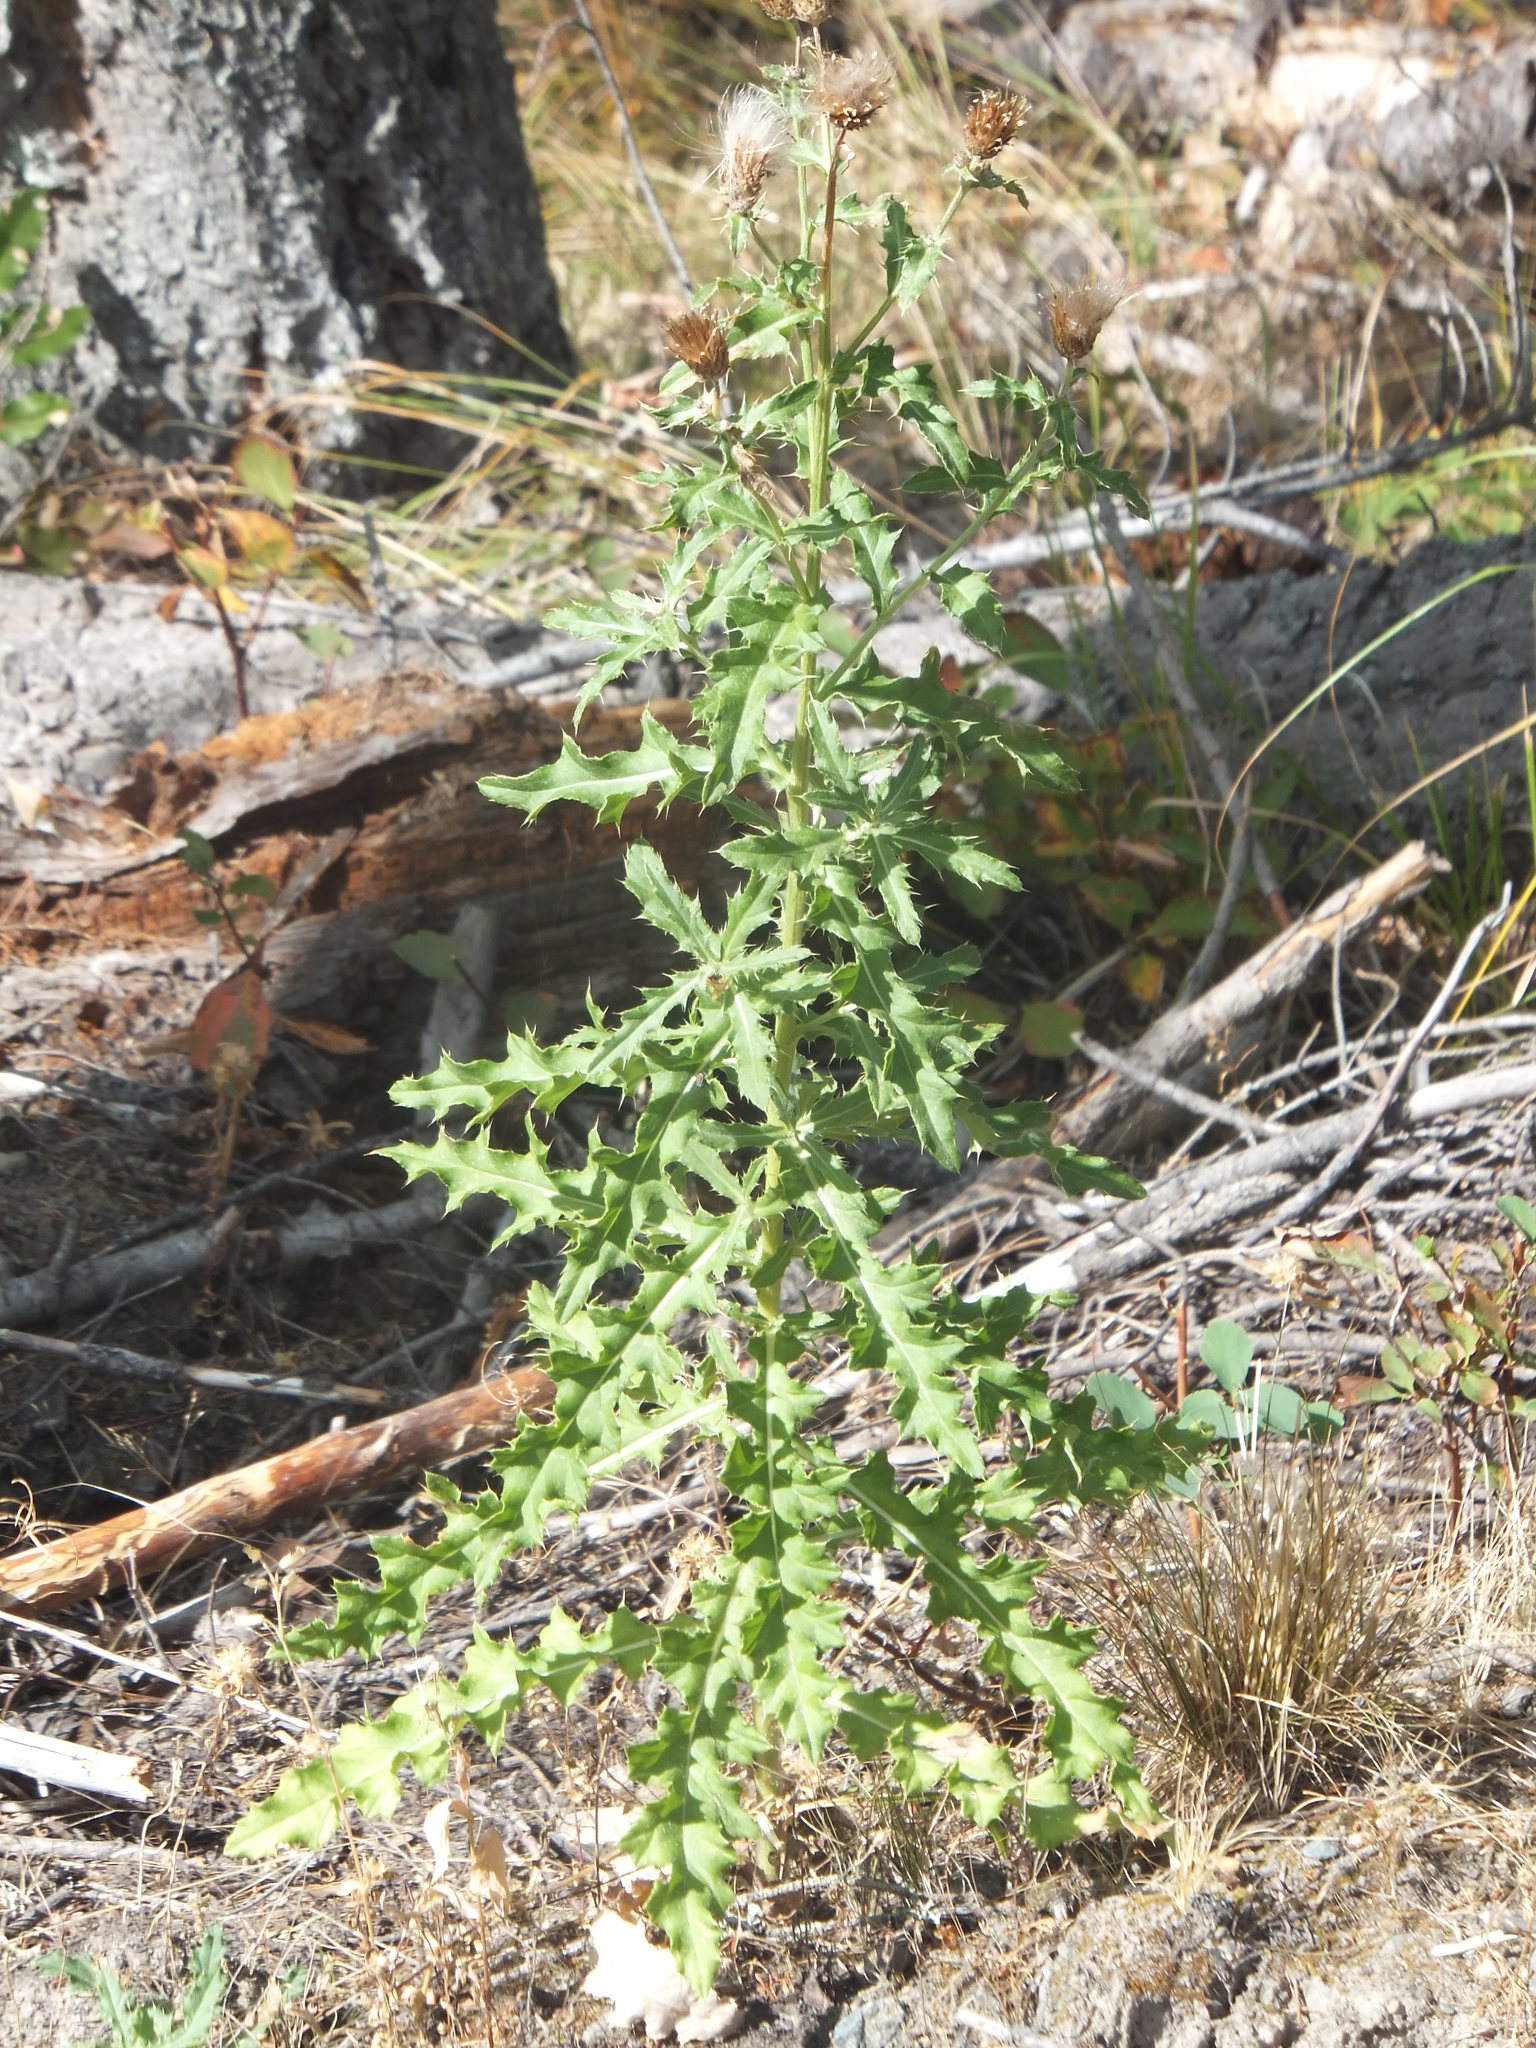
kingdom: Plantae
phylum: Tracheophyta
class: Magnoliopsida
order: Asterales
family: Asteraceae
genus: Cirsium
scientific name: Cirsium arvense
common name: Creeping thistle
